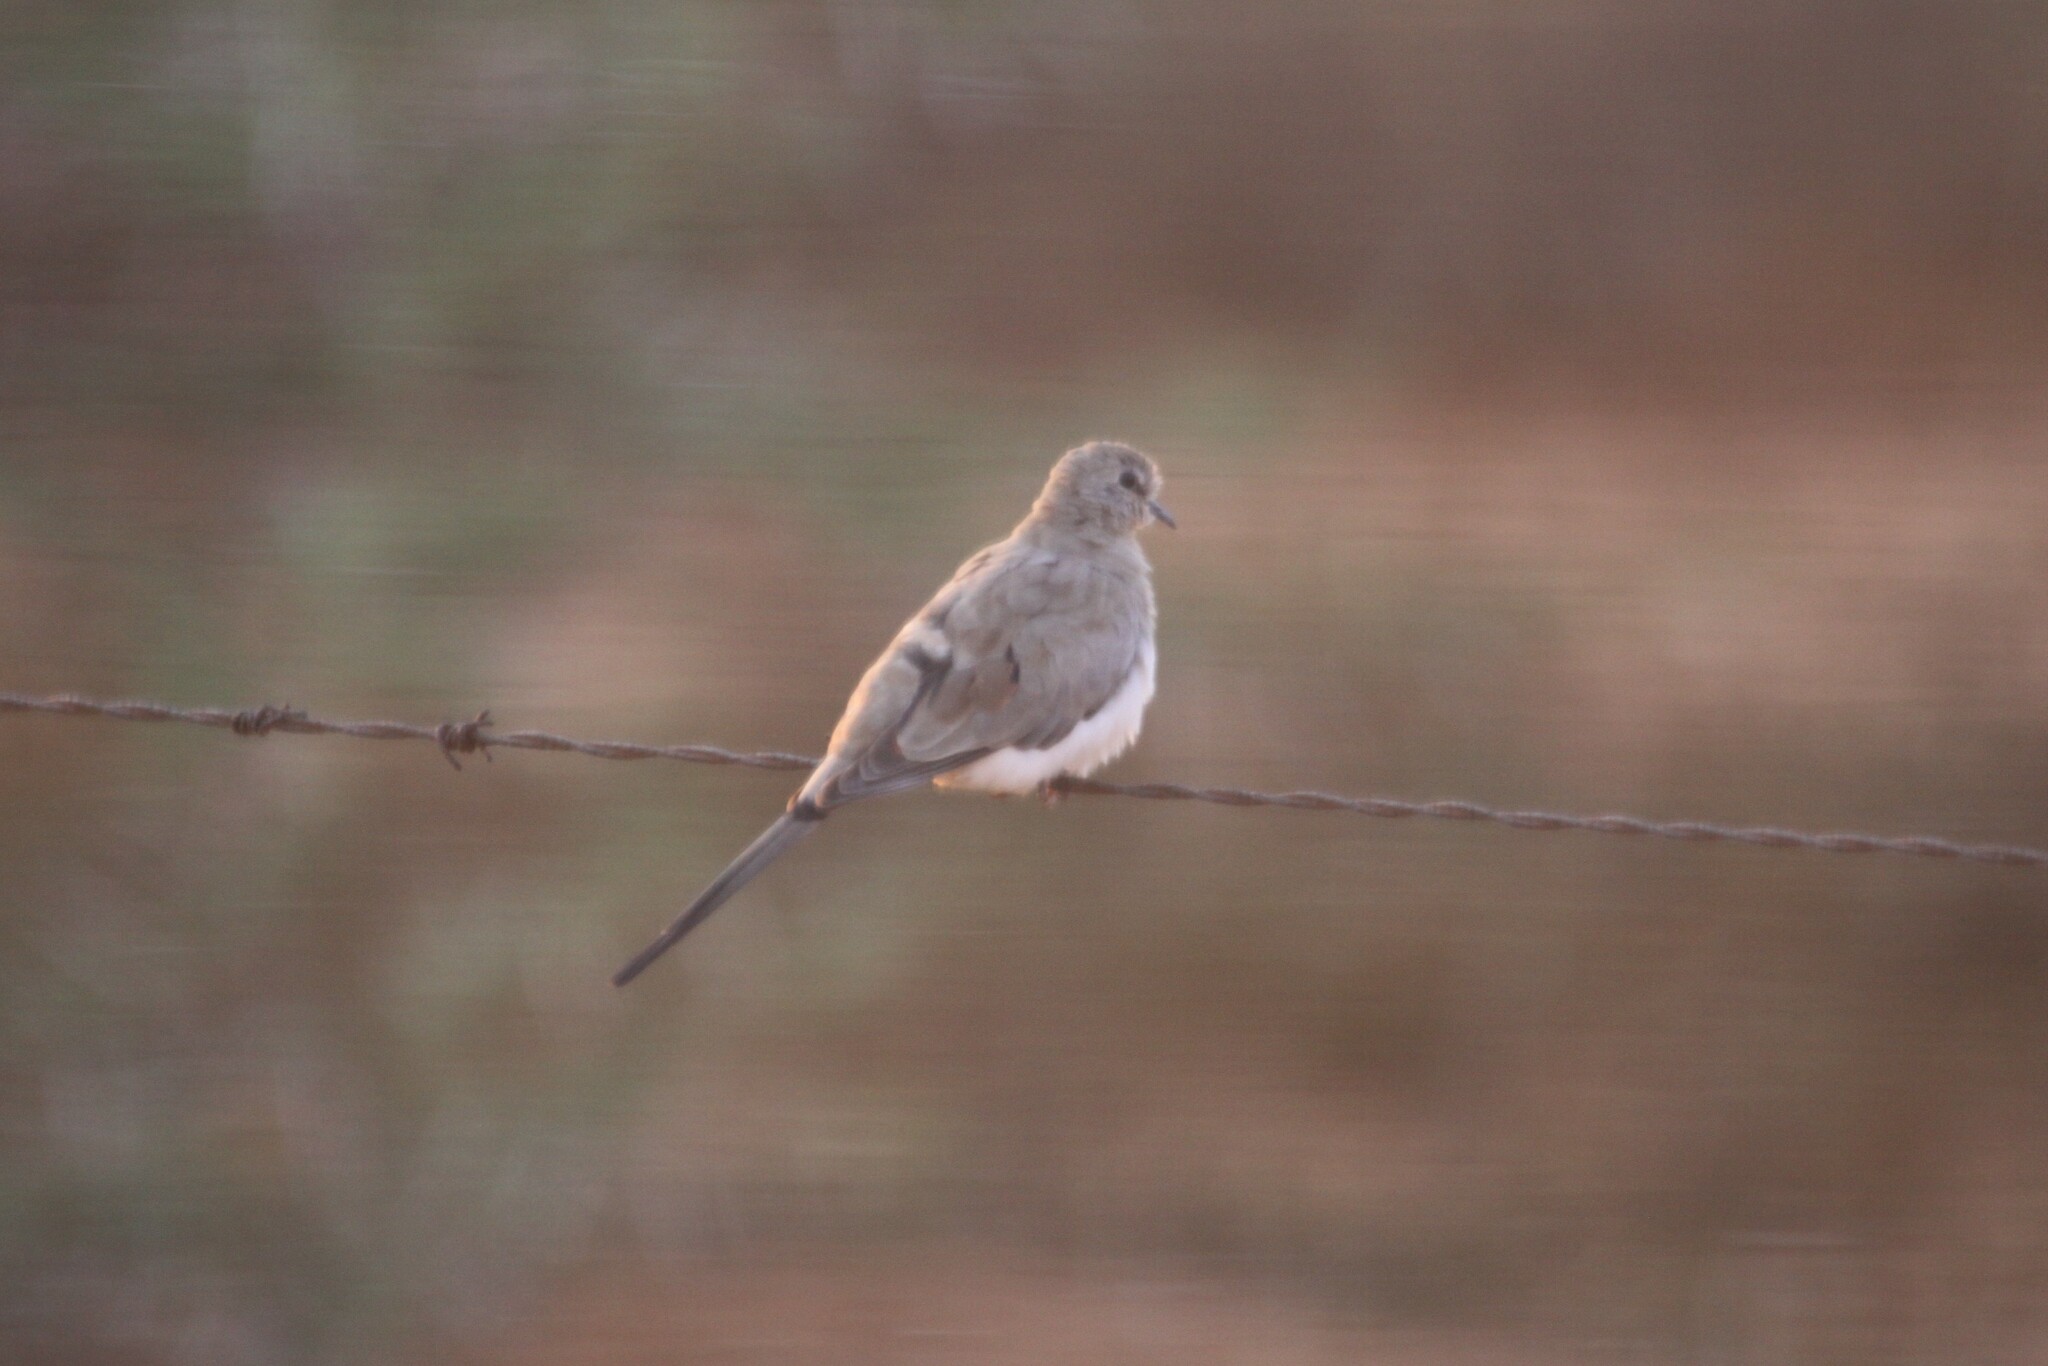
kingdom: Animalia
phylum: Chordata
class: Aves
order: Columbiformes
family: Columbidae
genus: Oena
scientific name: Oena capensis
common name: Namaqua dove
